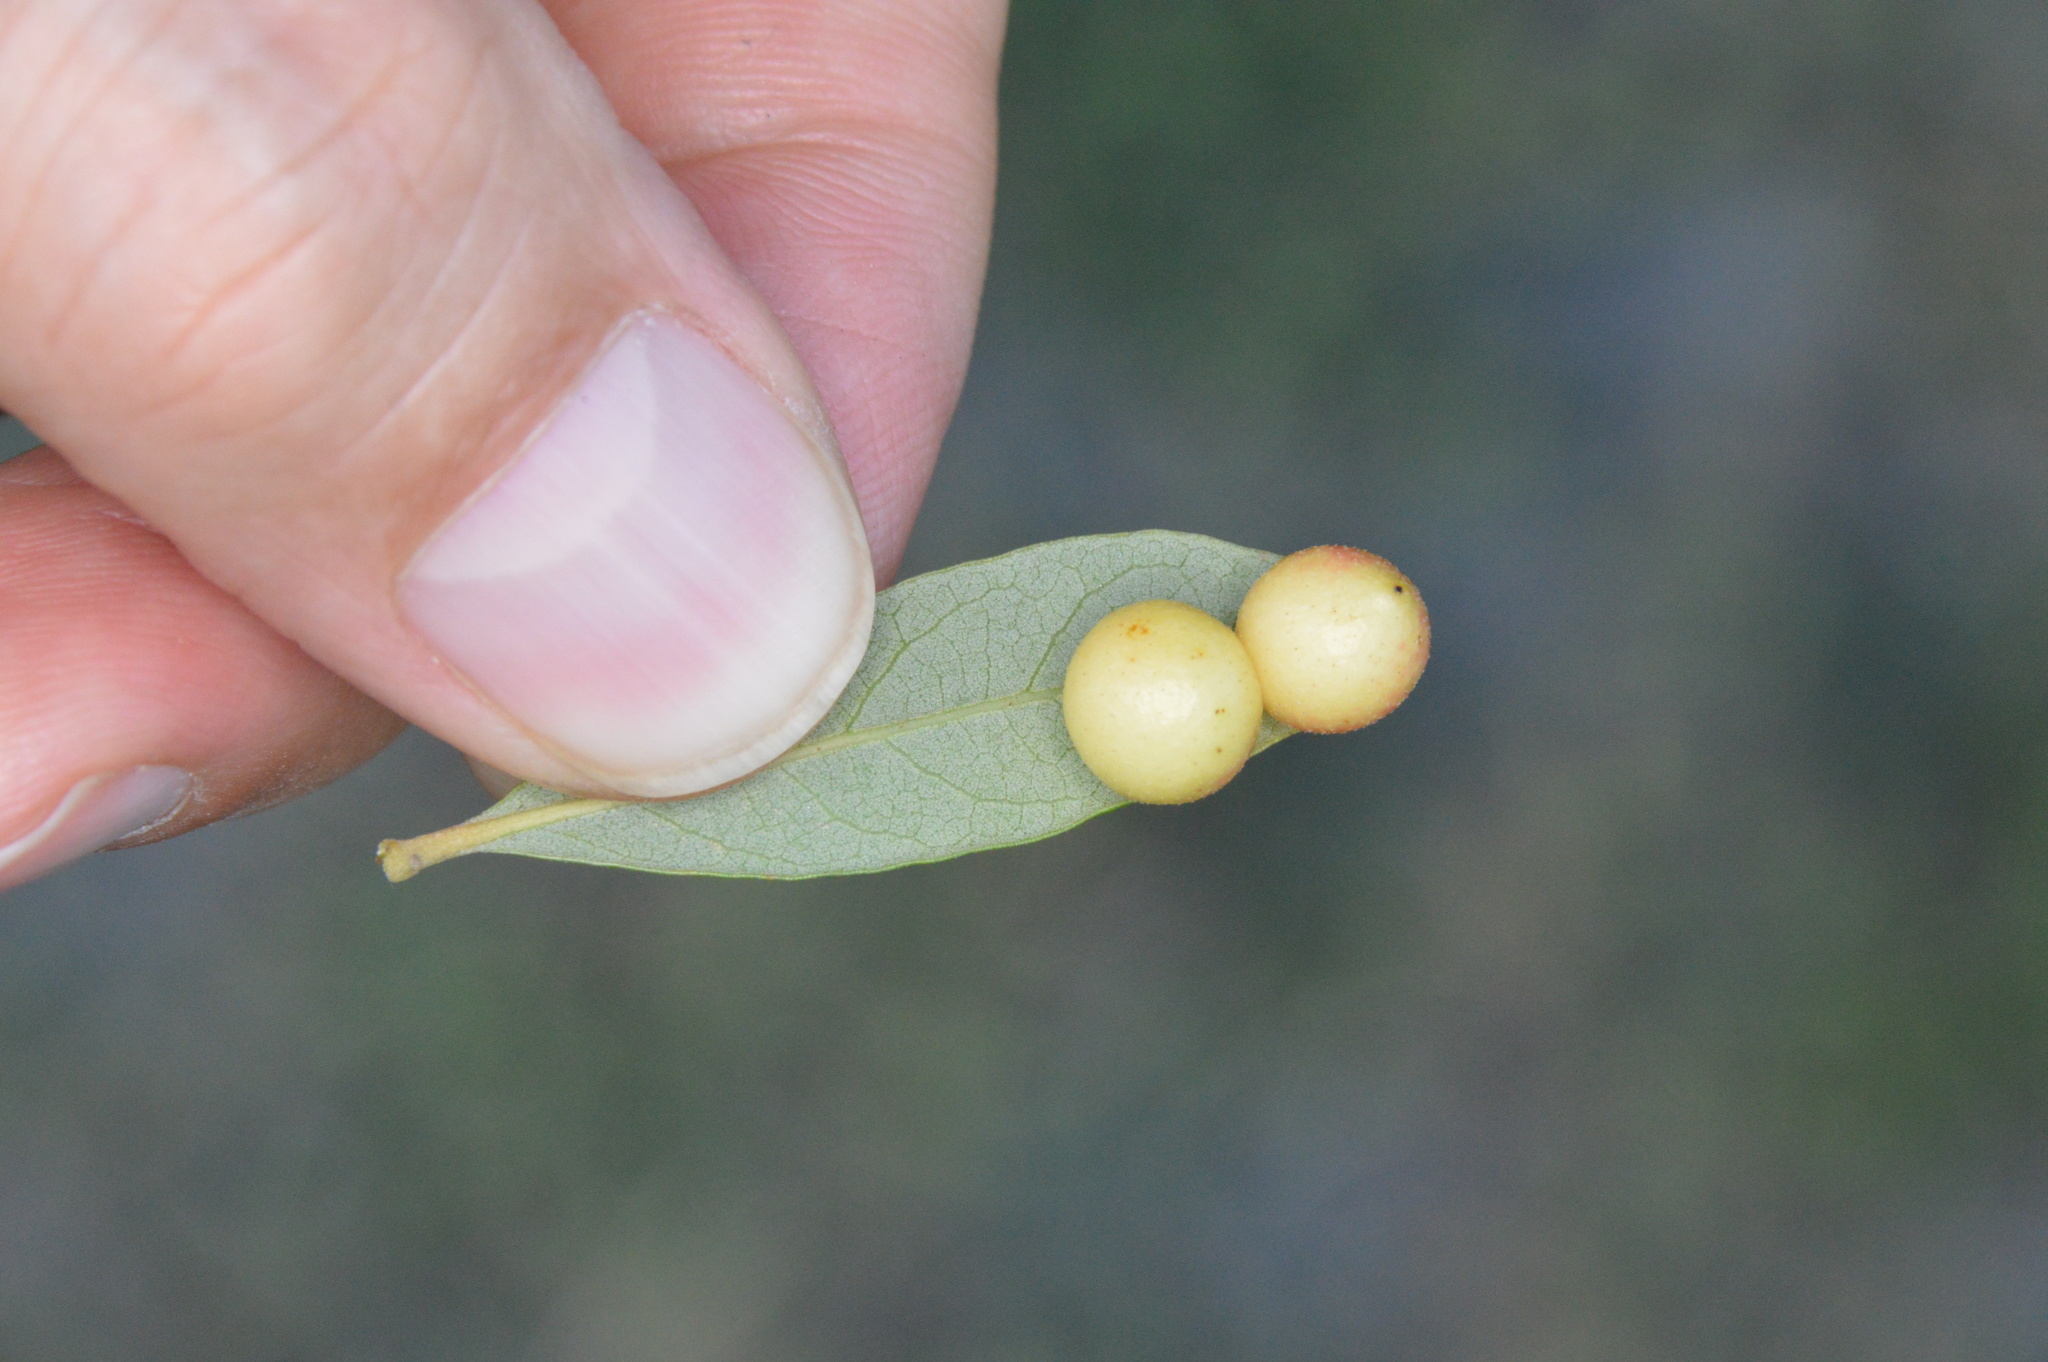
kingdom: Animalia
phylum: Arthropoda
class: Insecta
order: Hymenoptera
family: Cynipidae
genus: Belonocnema
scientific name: Belonocnema kinseyi
